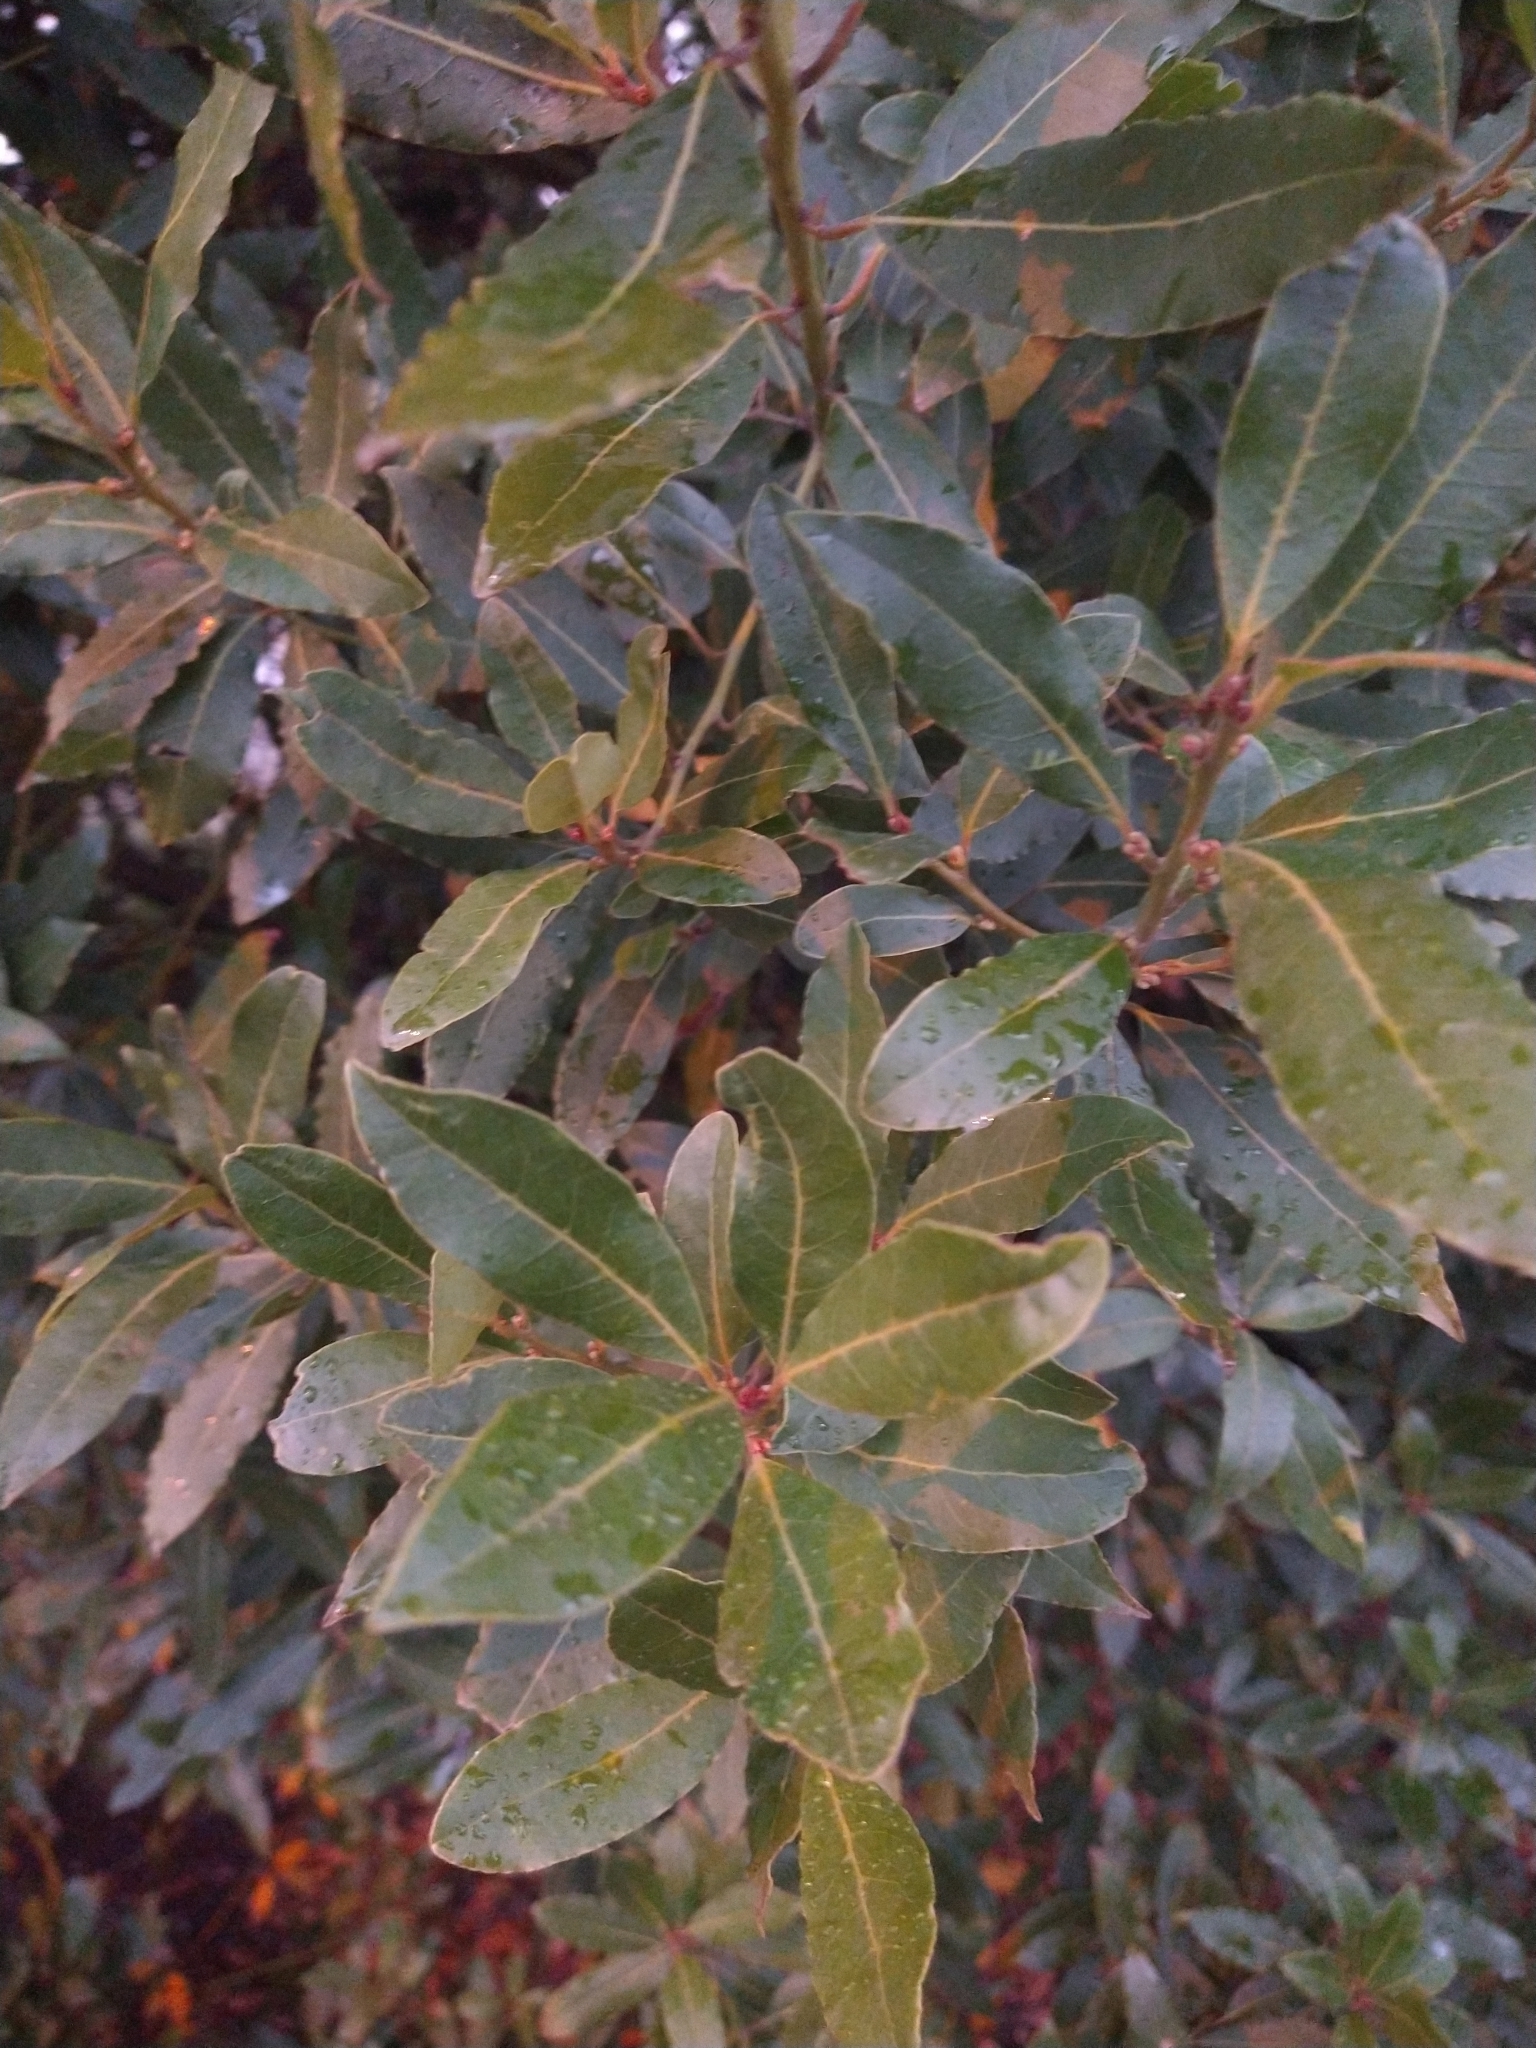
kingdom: Plantae
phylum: Tracheophyta
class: Magnoliopsida
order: Laurales
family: Lauraceae
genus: Laurus
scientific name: Laurus nobilis
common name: Bay
